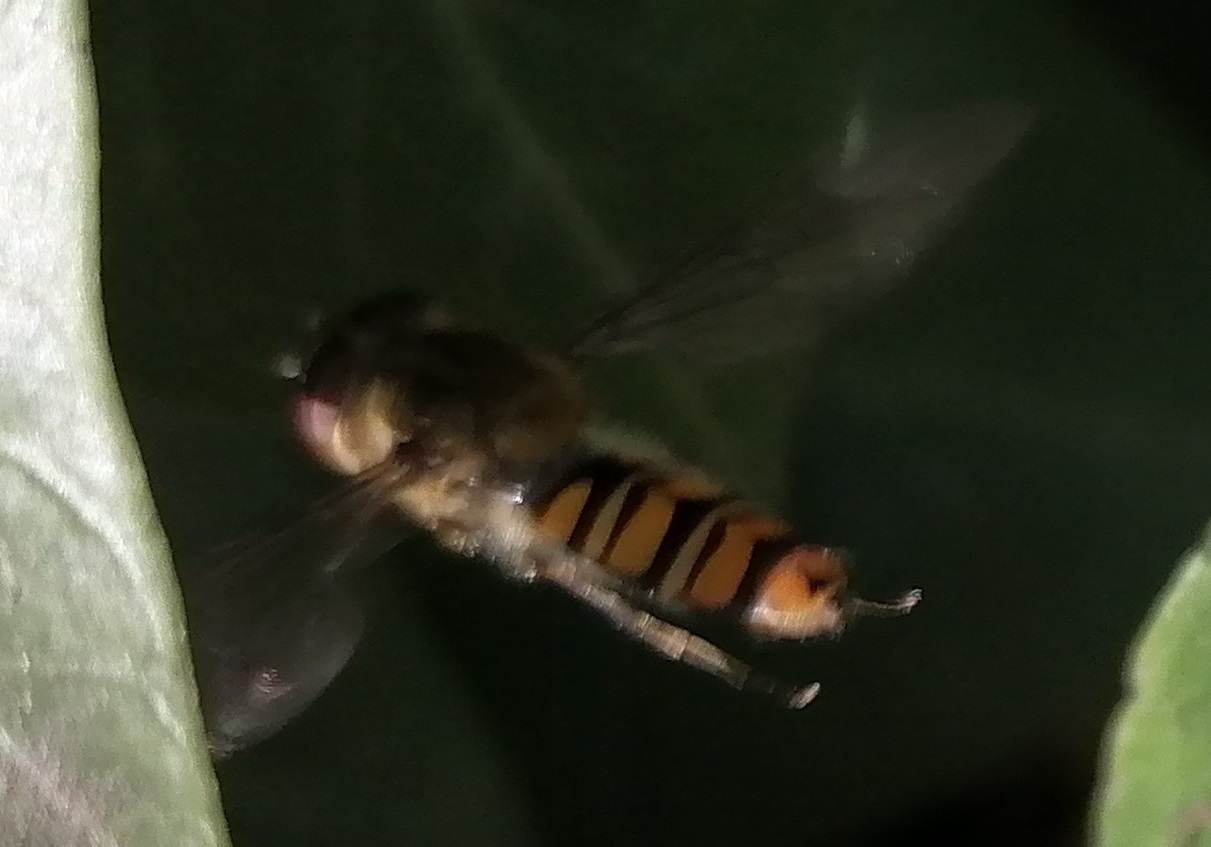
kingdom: Animalia
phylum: Arthropoda
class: Insecta
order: Diptera
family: Syrphidae
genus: Episyrphus
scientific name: Episyrphus balteatus
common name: Marmalade hoverfly
